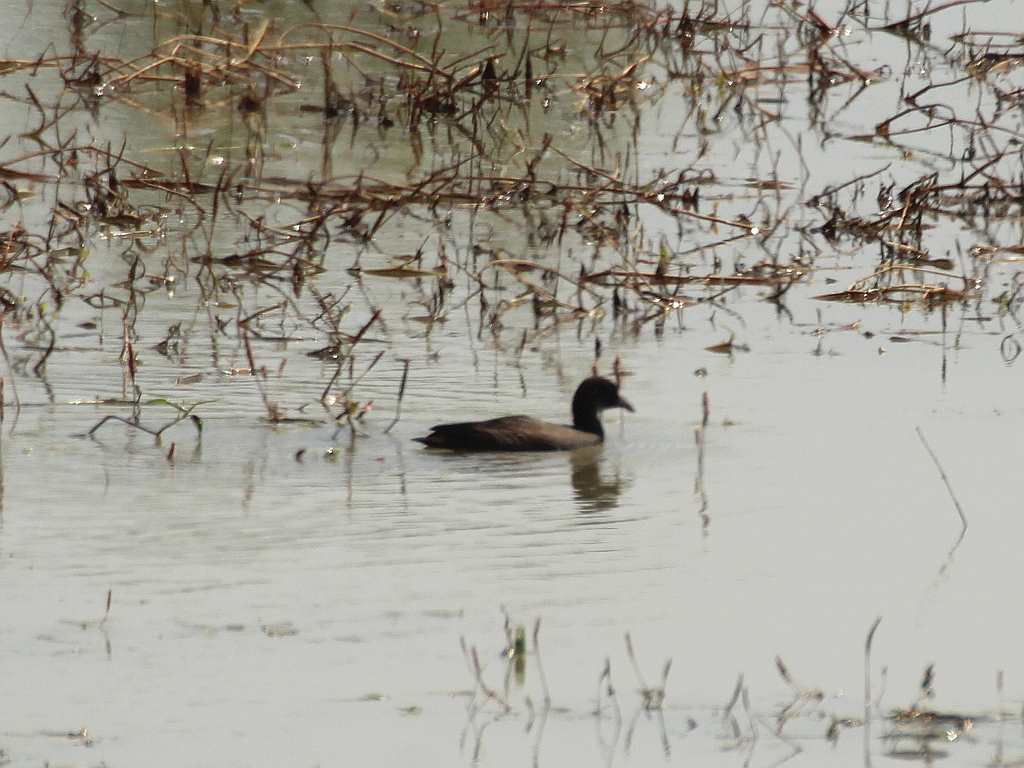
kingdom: Animalia
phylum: Chordata
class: Aves
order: Gruiformes
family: Rallidae
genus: Fulica
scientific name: Fulica atra
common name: Eurasian coot
